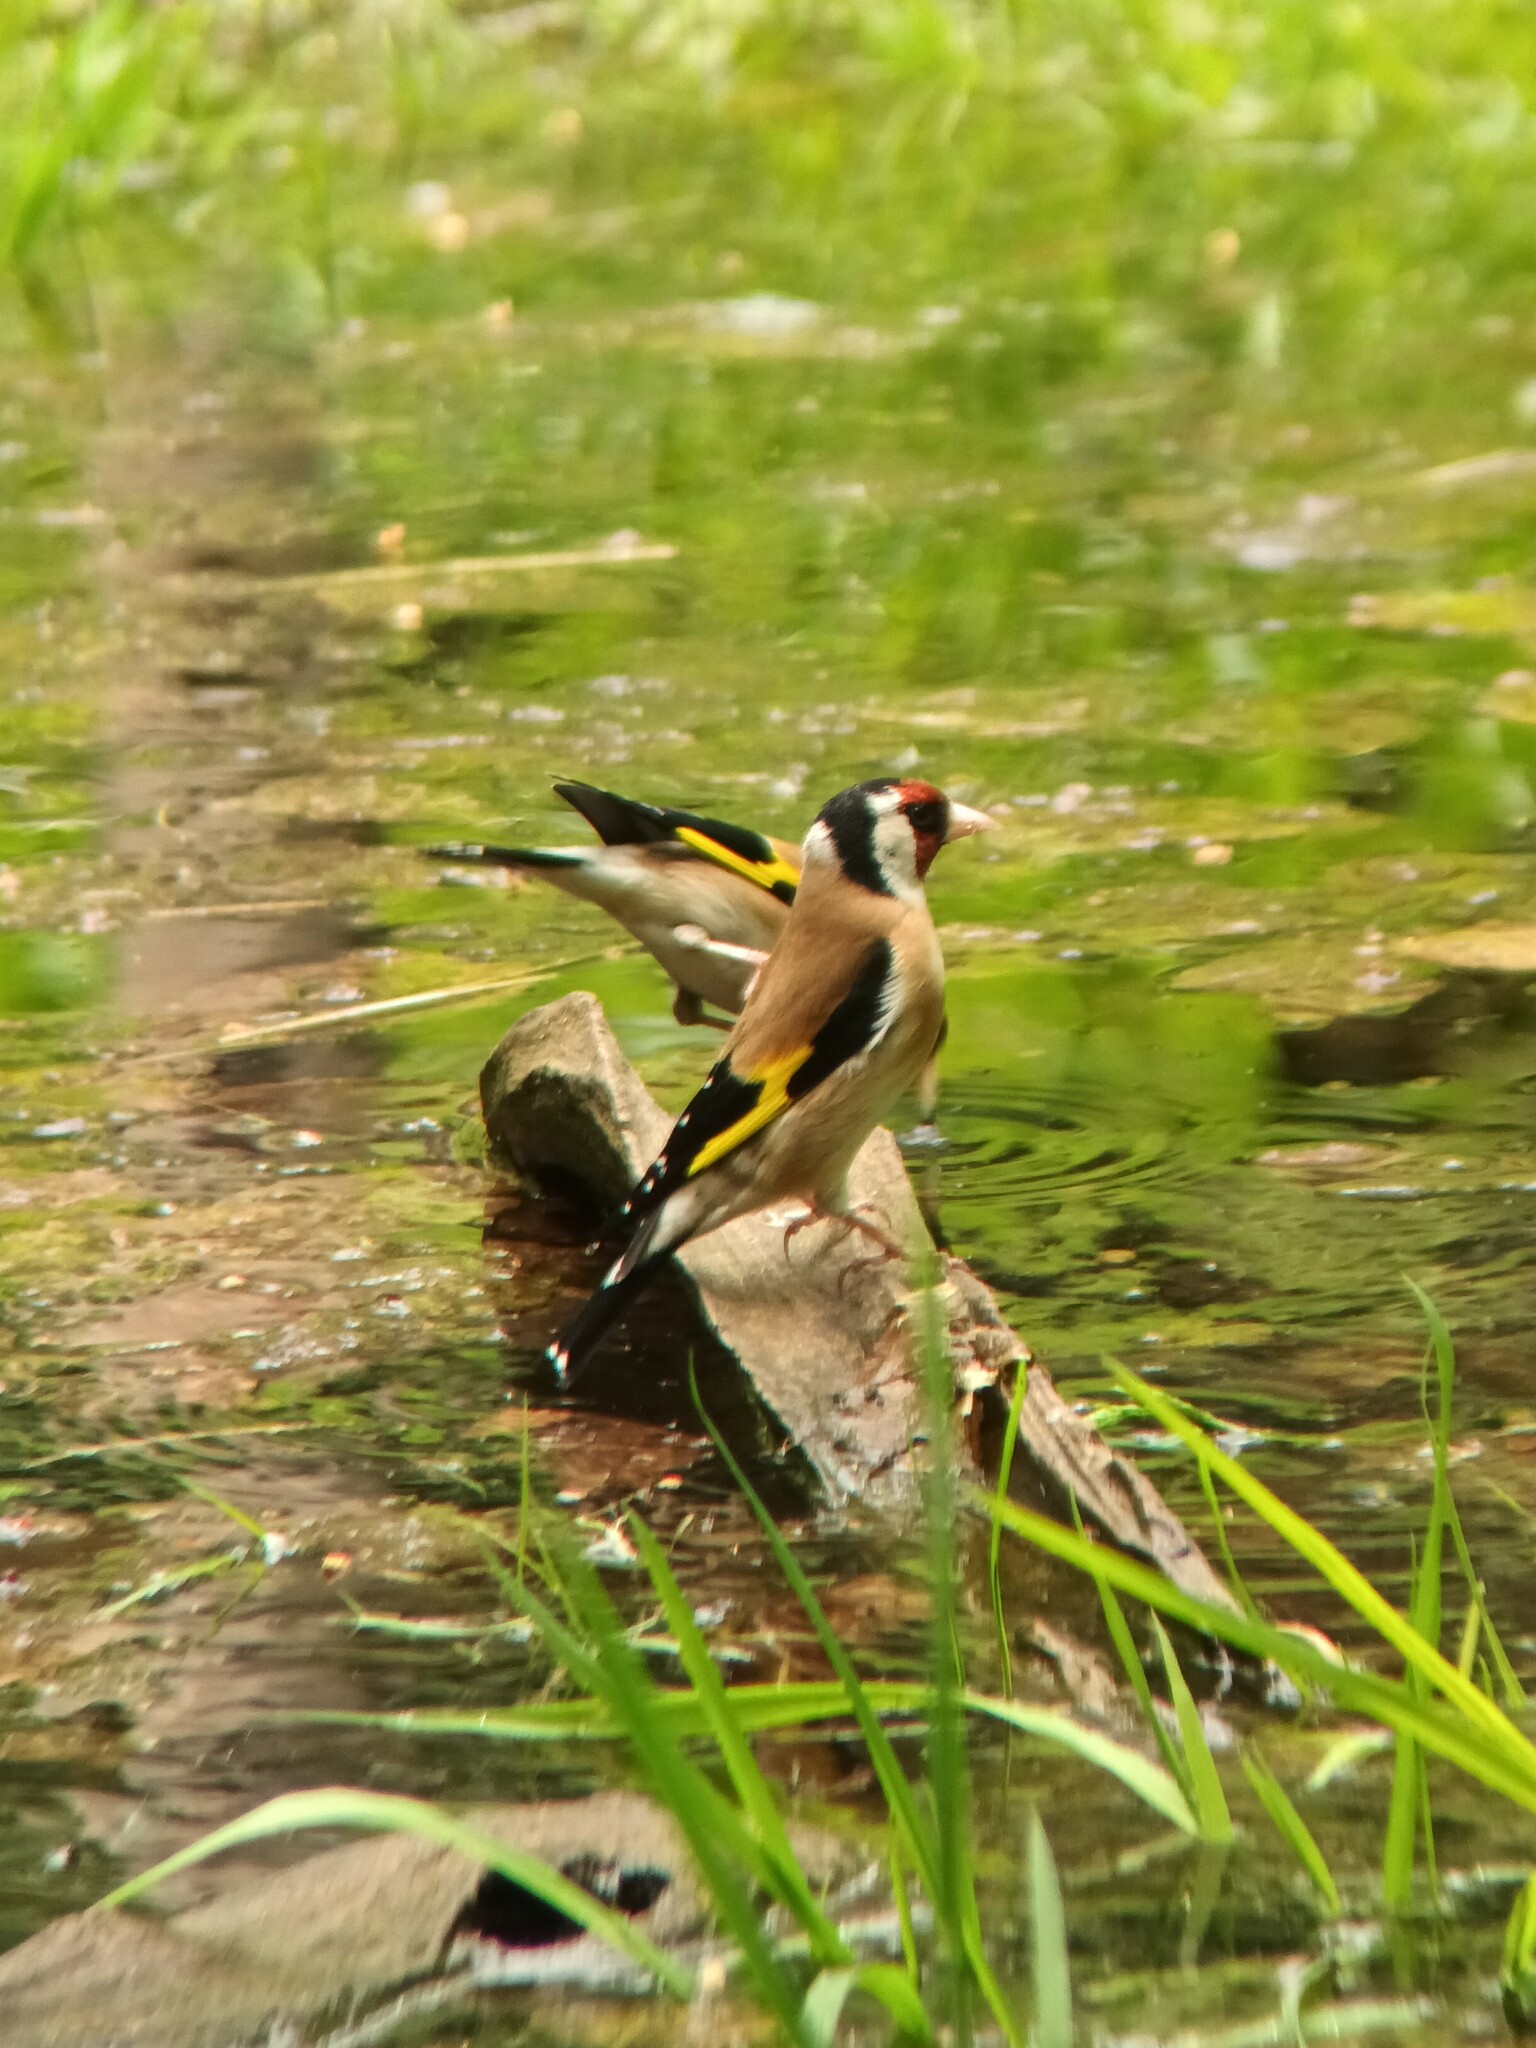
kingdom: Animalia
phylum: Chordata
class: Aves
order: Passeriformes
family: Fringillidae
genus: Carduelis
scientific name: Carduelis carduelis
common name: European goldfinch
